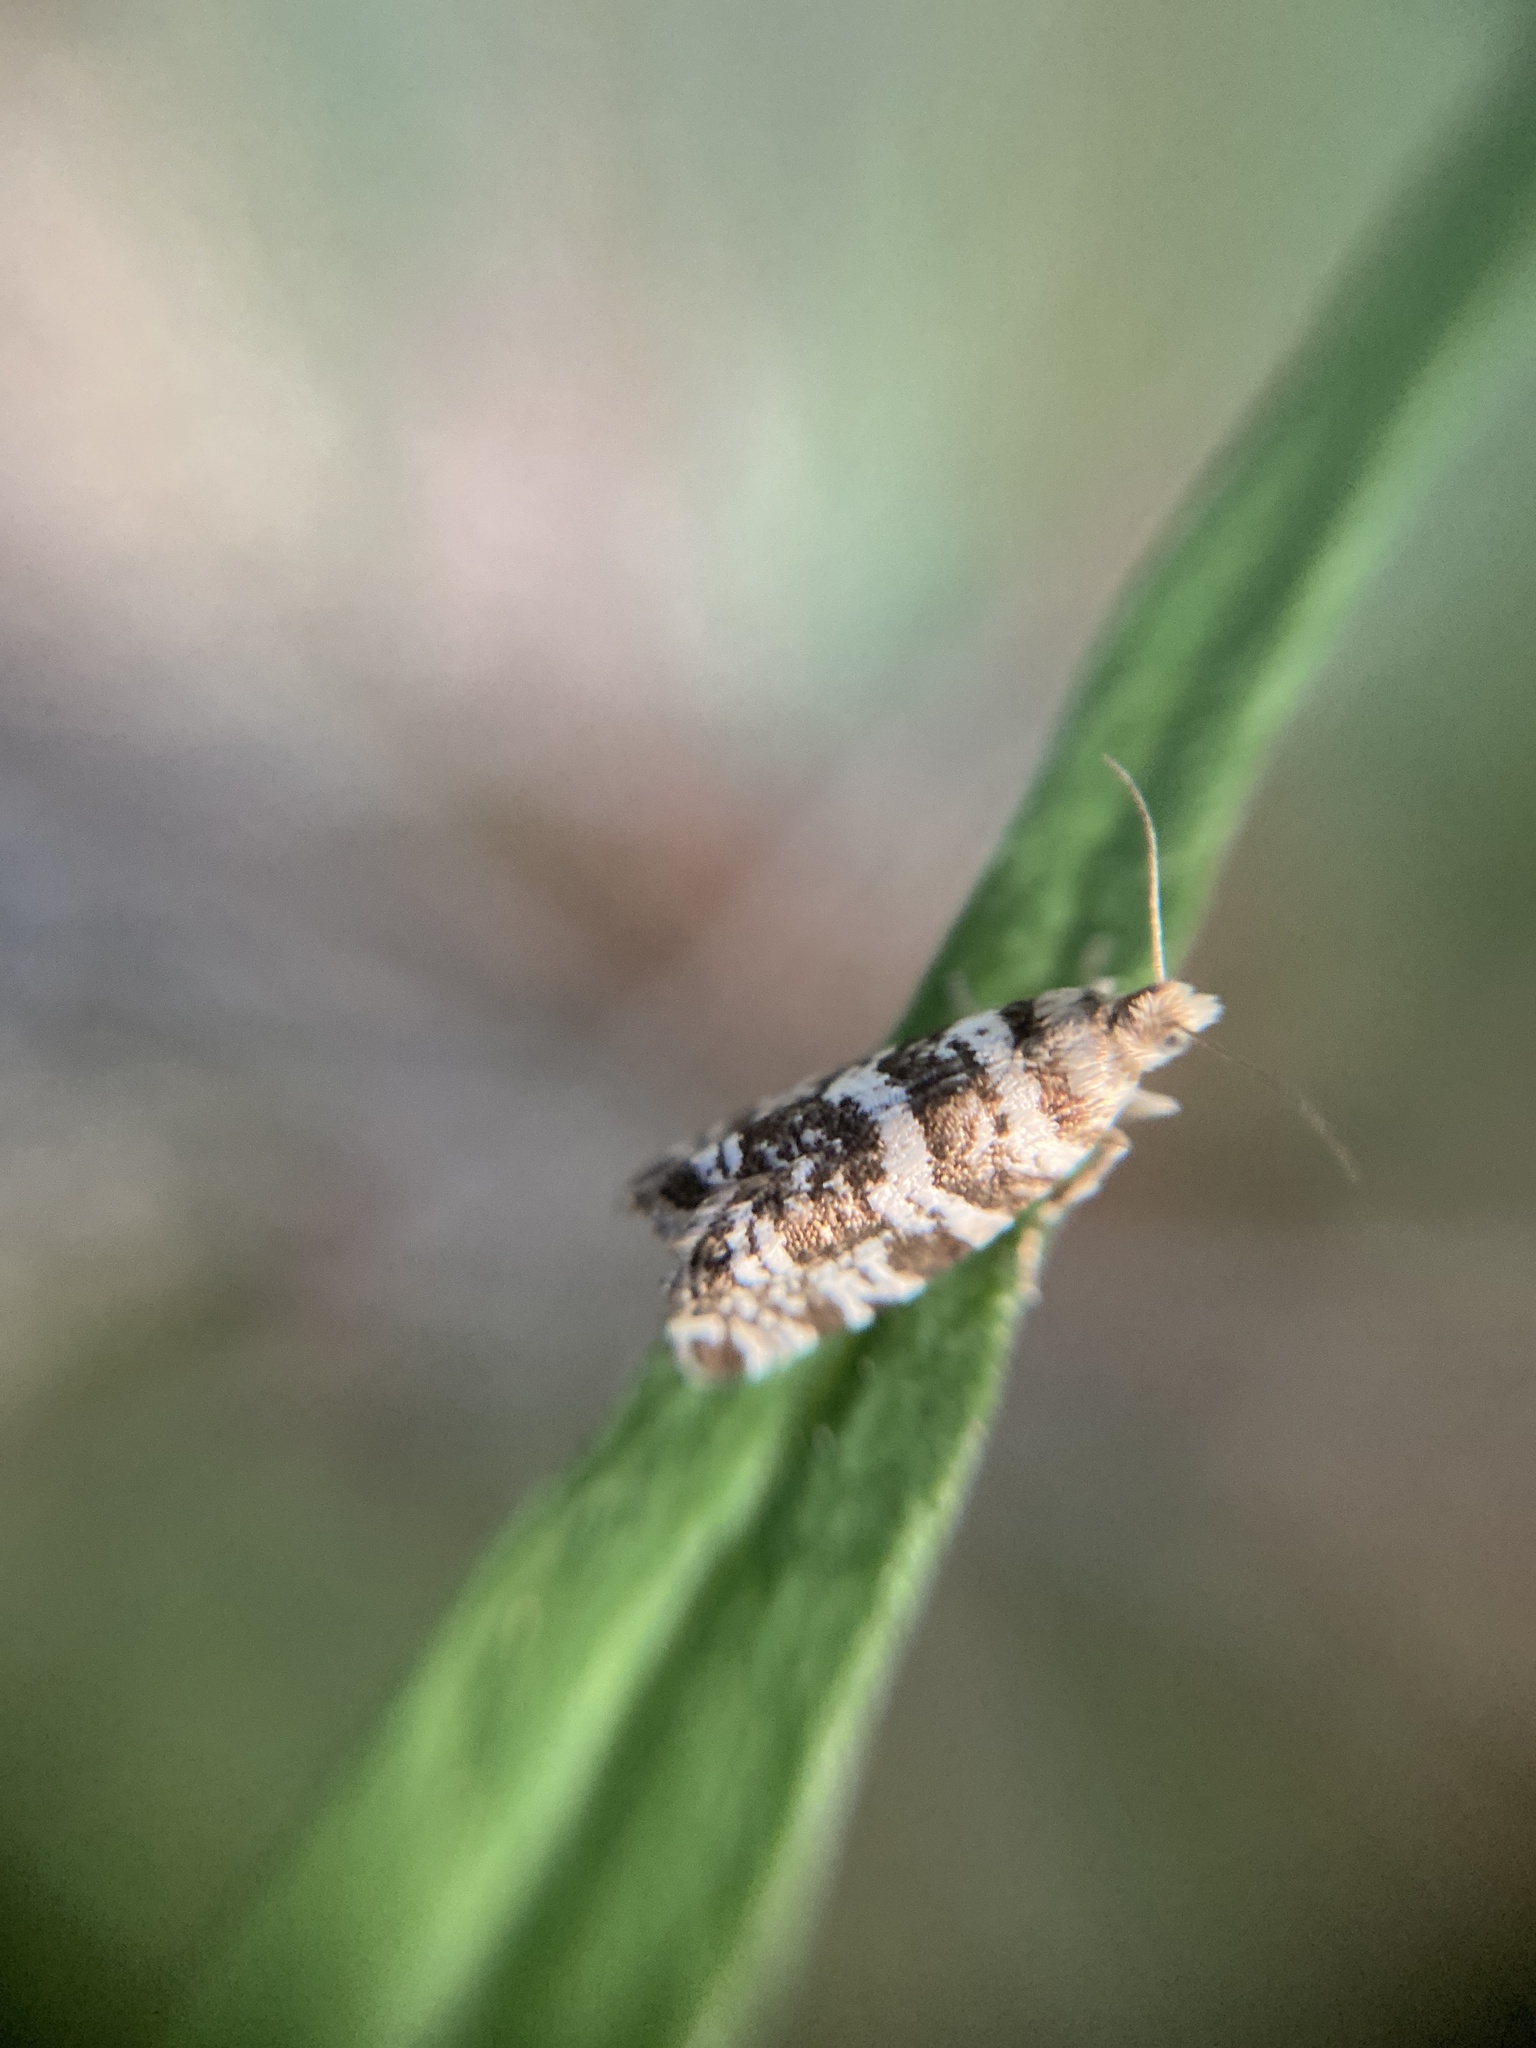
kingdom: Animalia
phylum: Arthropoda
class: Insecta
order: Lepidoptera
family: Tortricidae
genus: Epinotia
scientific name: Epinotia tedella
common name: Common spruce bell
